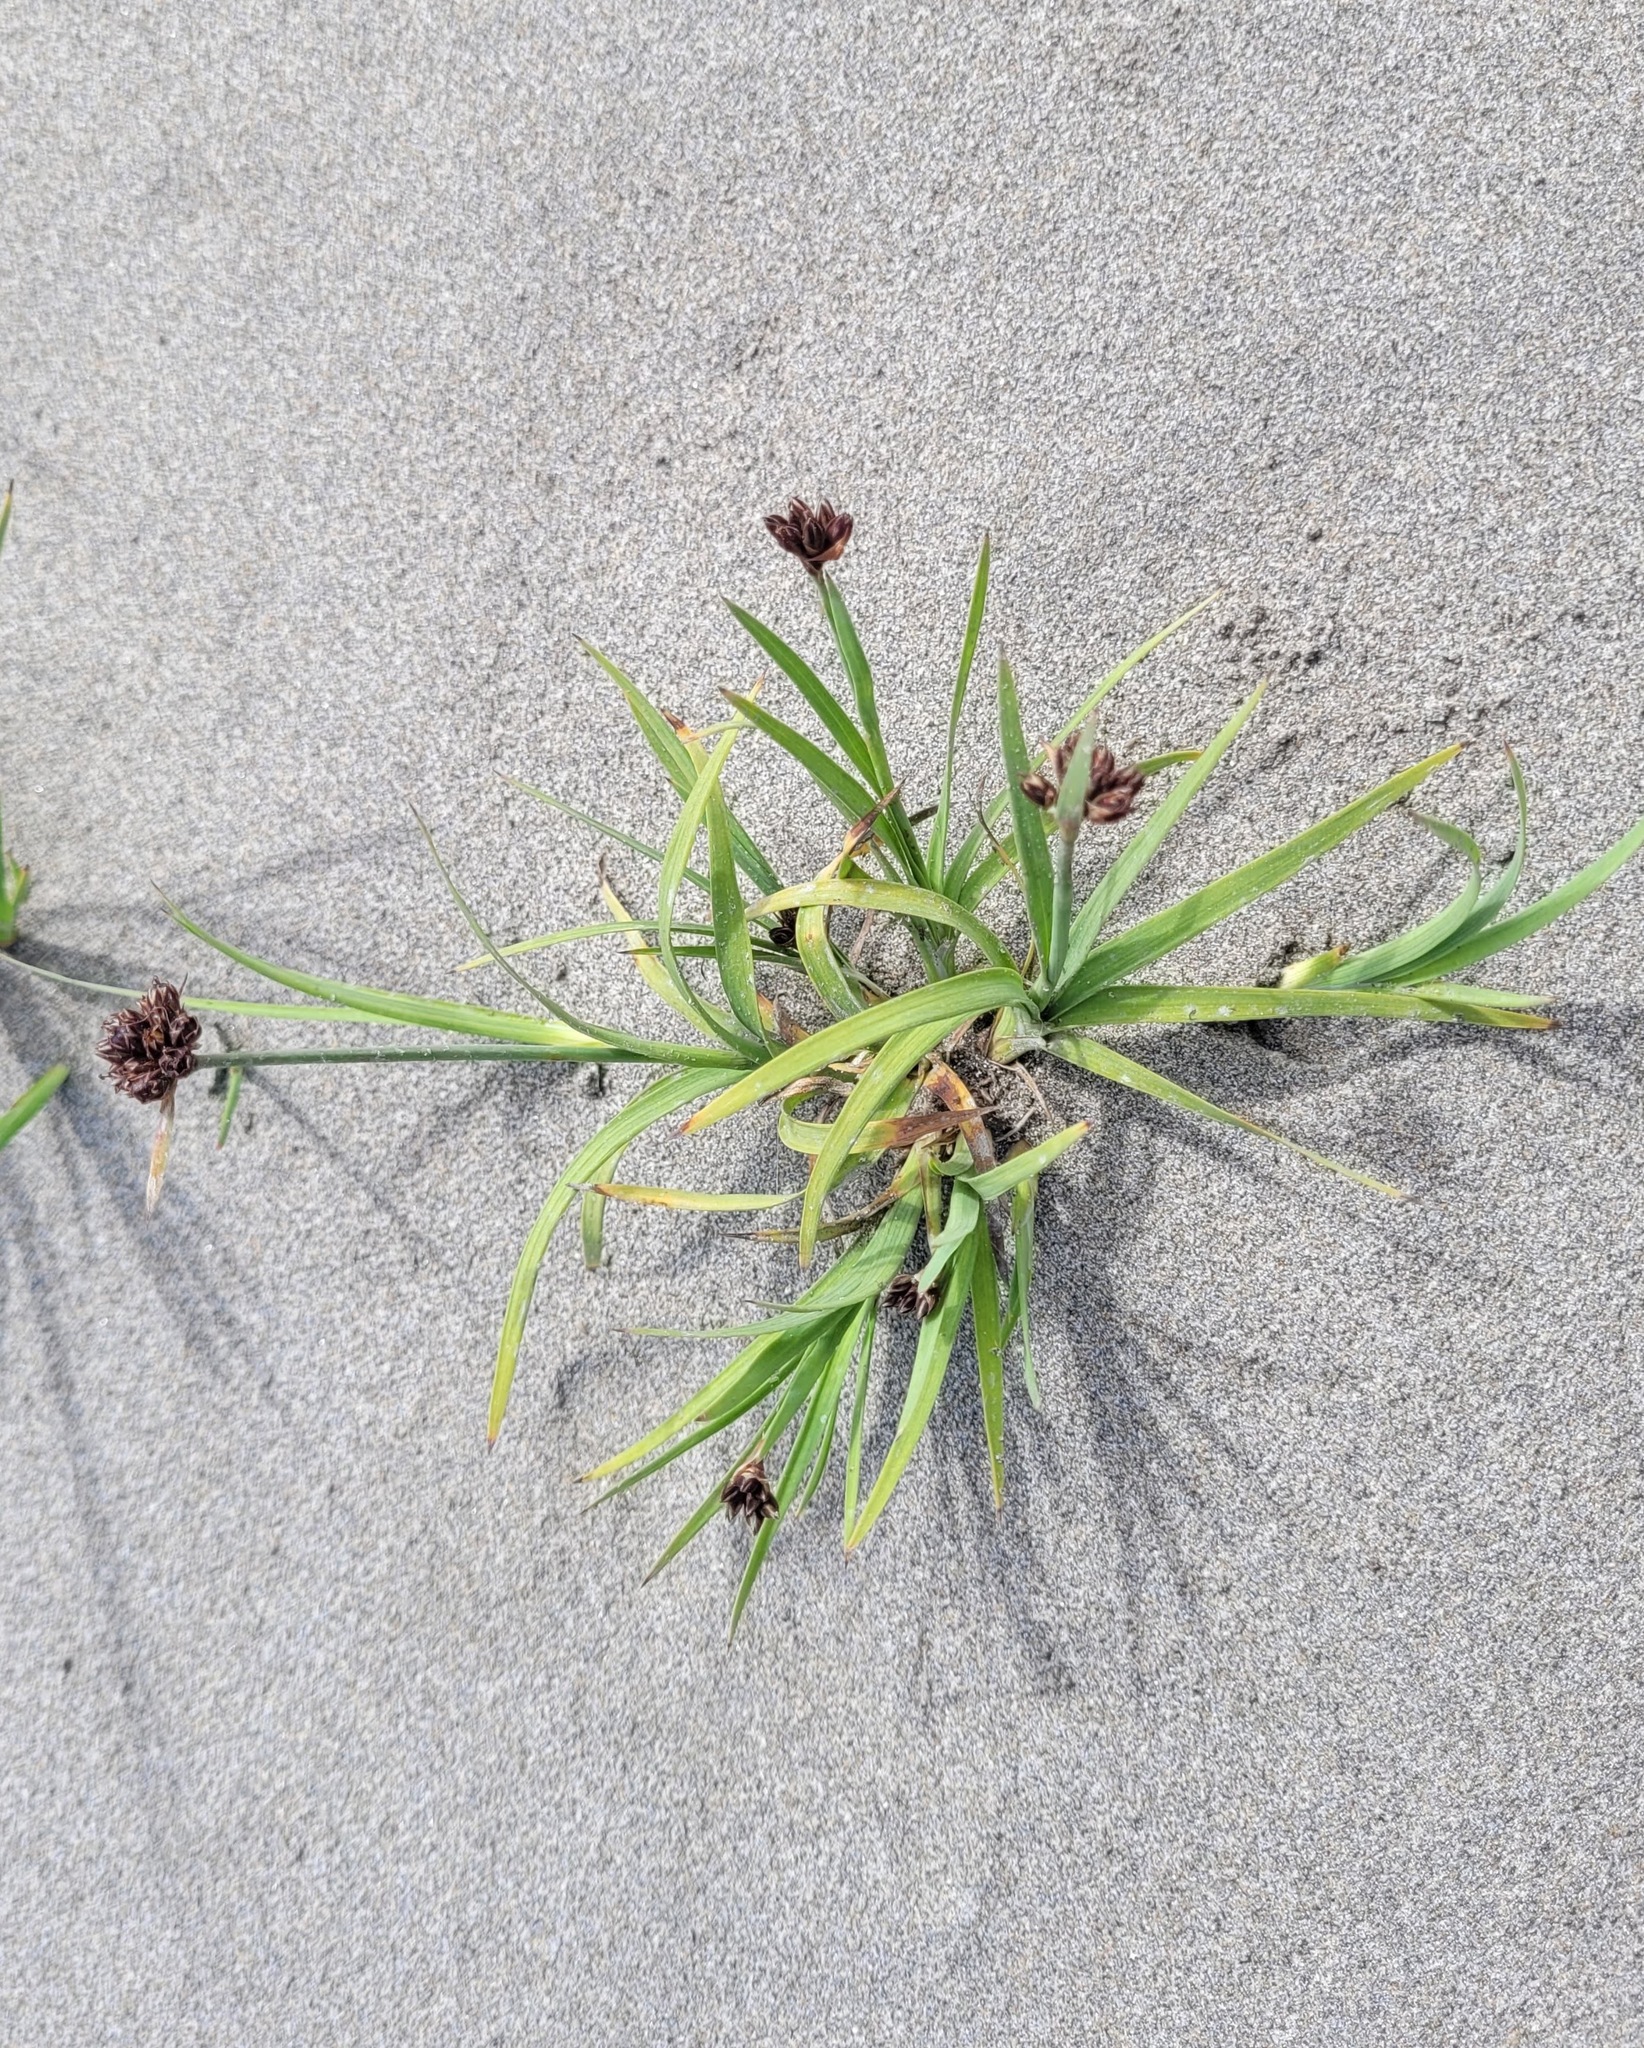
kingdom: Plantae
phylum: Tracheophyta
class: Liliopsida
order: Poales
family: Juncaceae
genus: Juncus
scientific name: Juncus falcatus
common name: Sickle-leaf rush
